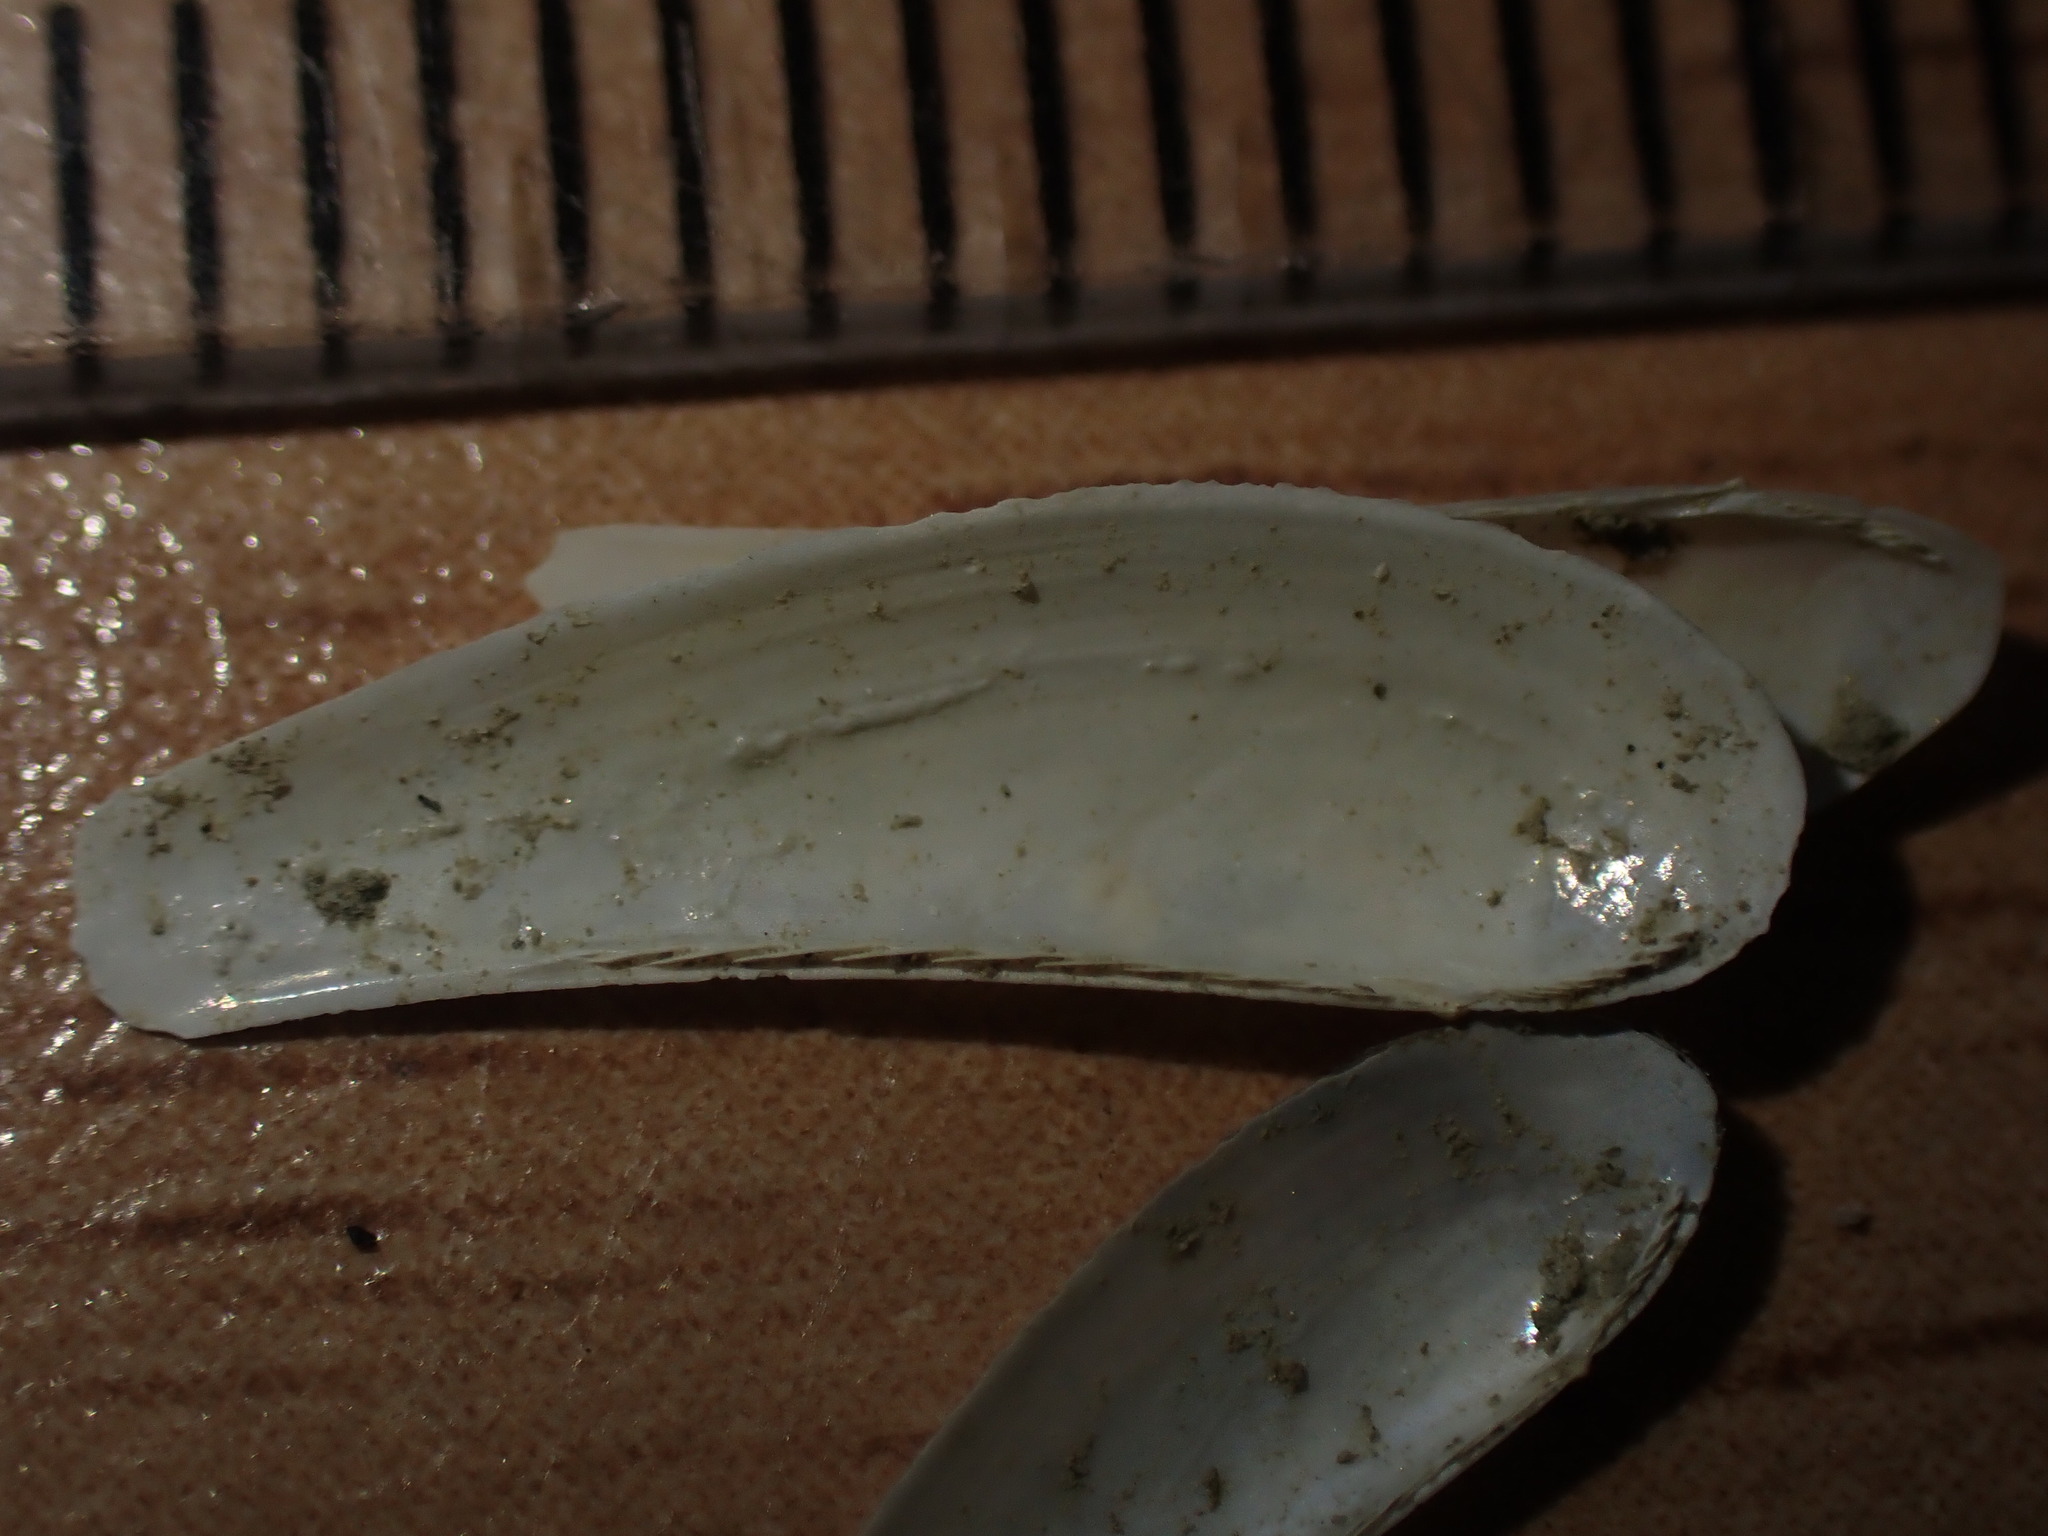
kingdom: Animalia
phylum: Mollusca
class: Bivalvia
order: Nuculanida
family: Nuculanidae
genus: Poroleda
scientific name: Poroleda lanceolata
